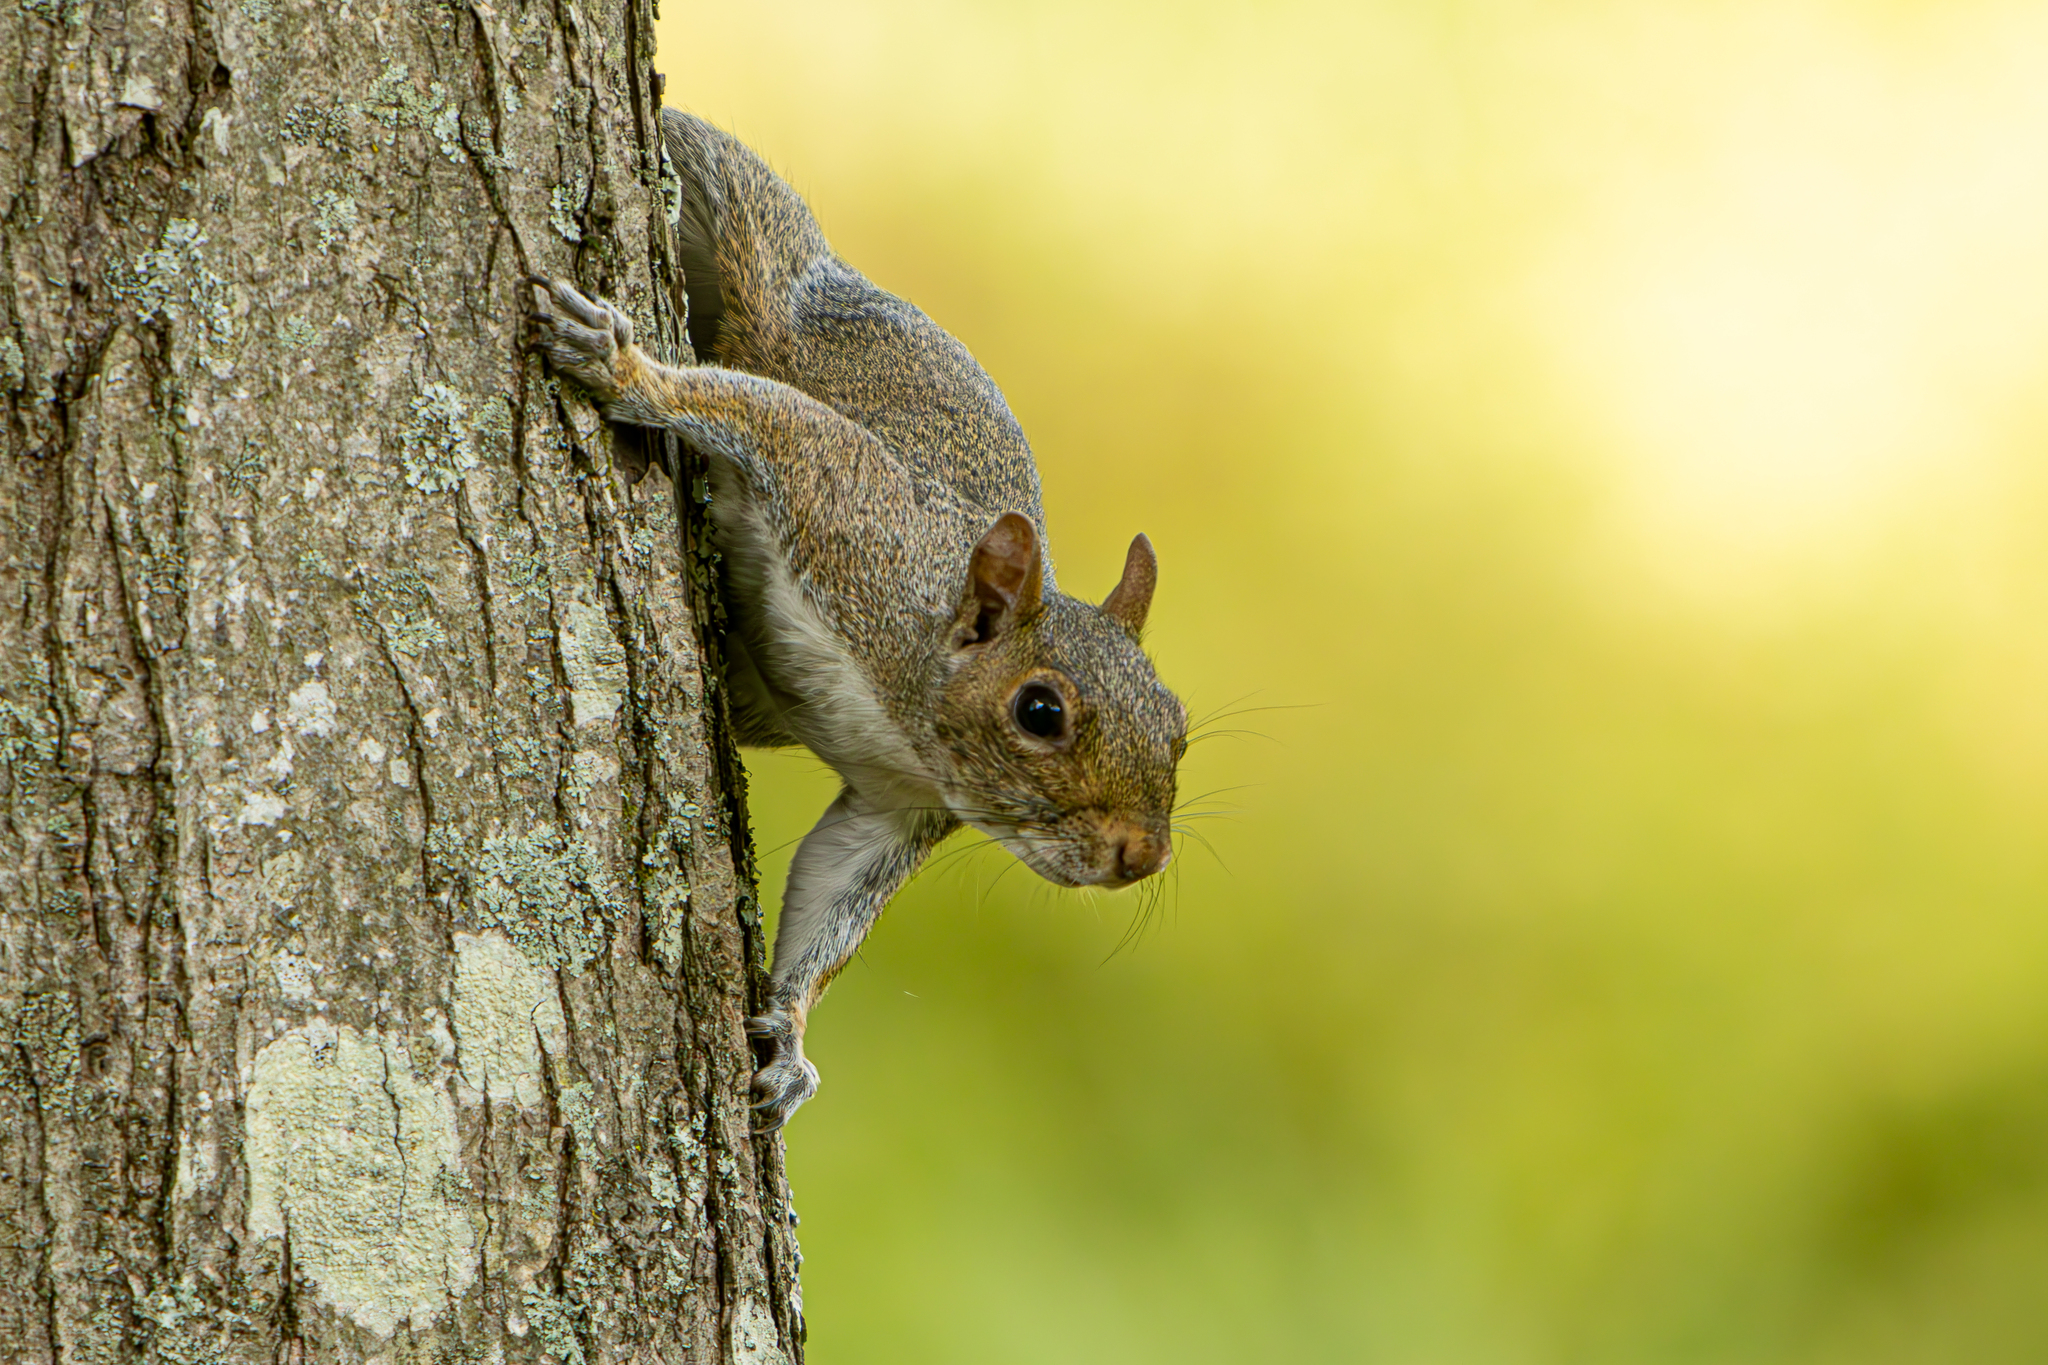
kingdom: Animalia
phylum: Chordata
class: Mammalia
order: Rodentia
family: Sciuridae
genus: Sciurus
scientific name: Sciurus carolinensis
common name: Eastern gray squirrel
